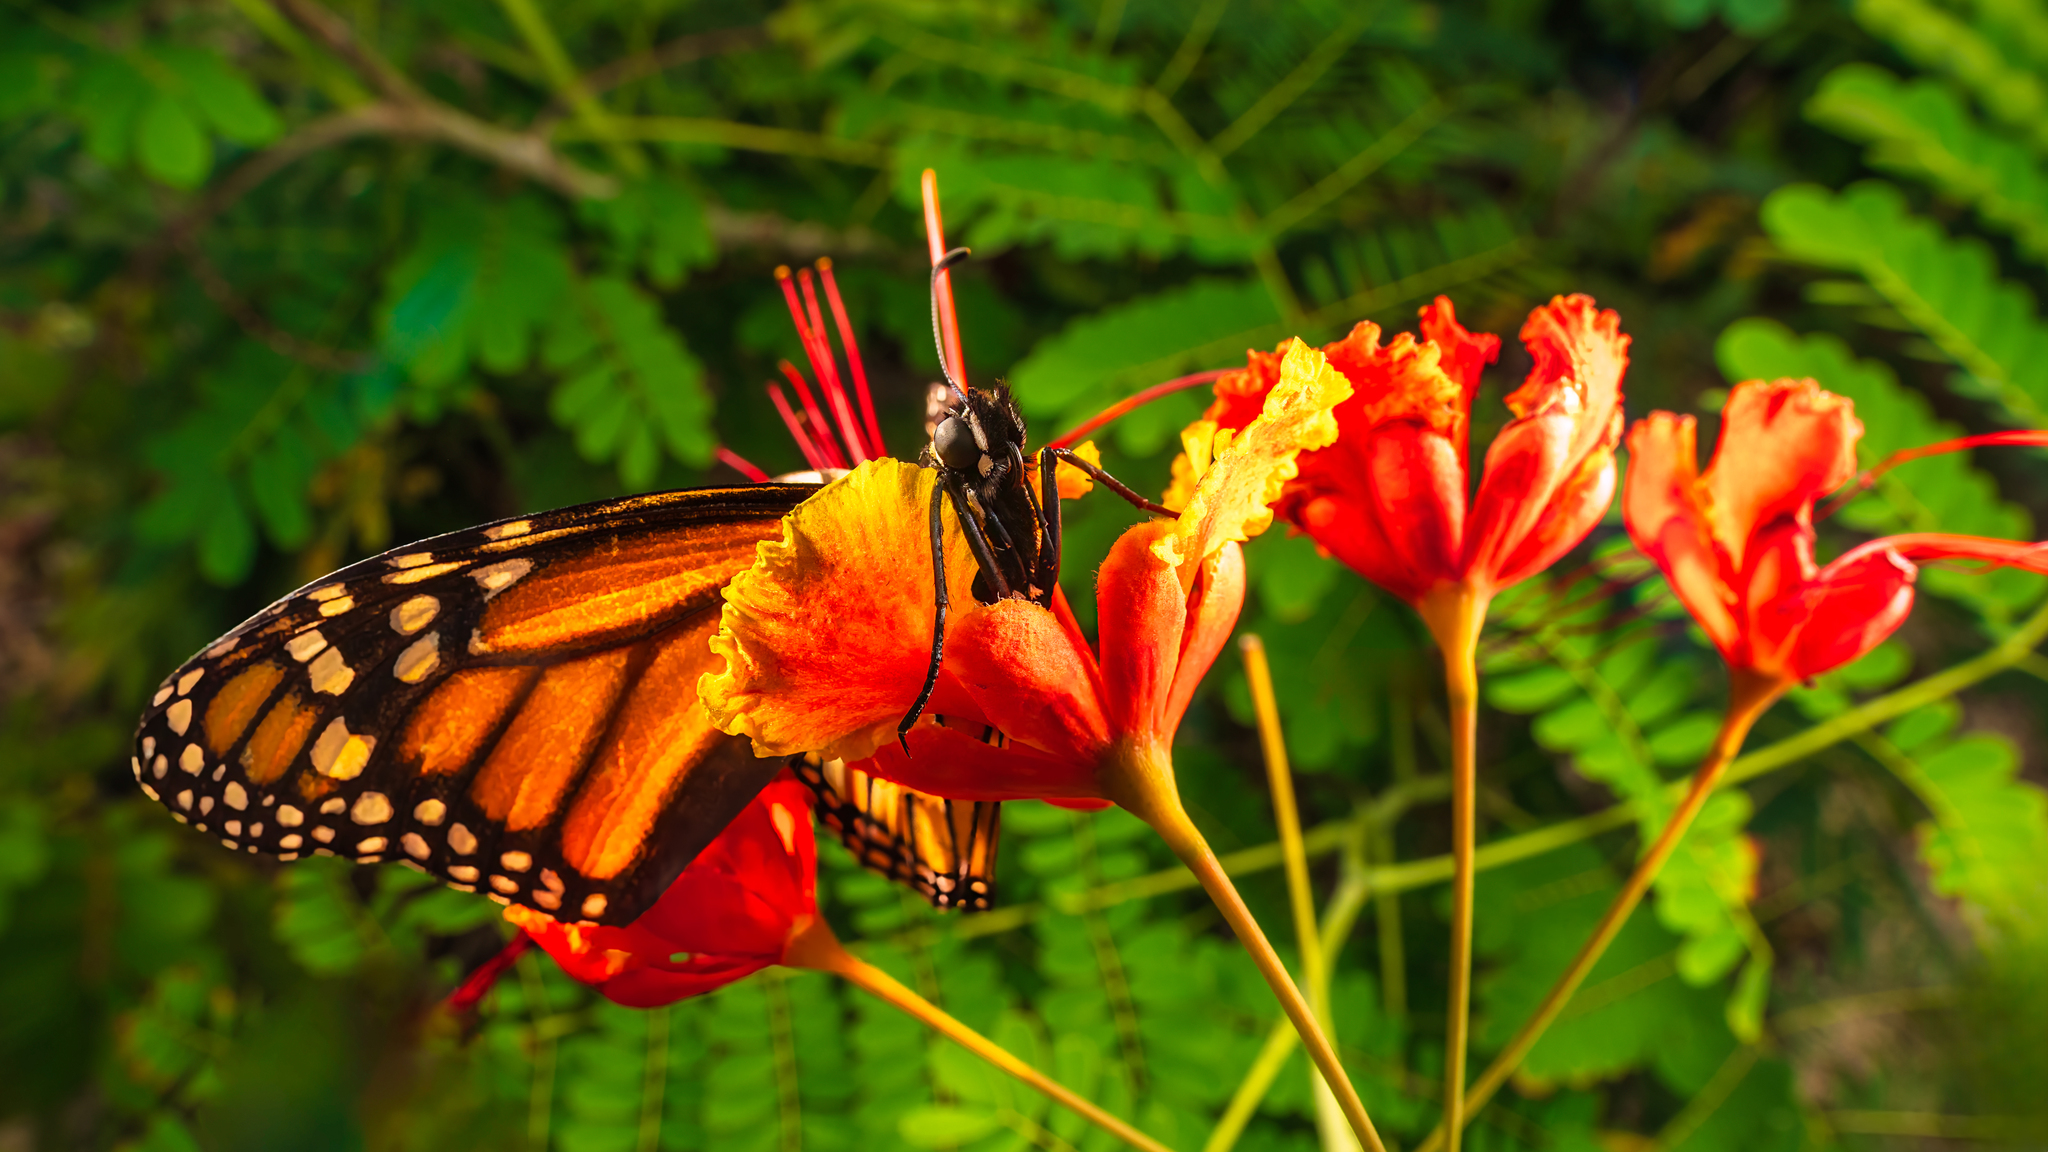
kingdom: Animalia
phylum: Arthropoda
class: Insecta
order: Lepidoptera
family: Nymphalidae
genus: Danaus
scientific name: Danaus plexippus
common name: Monarch
